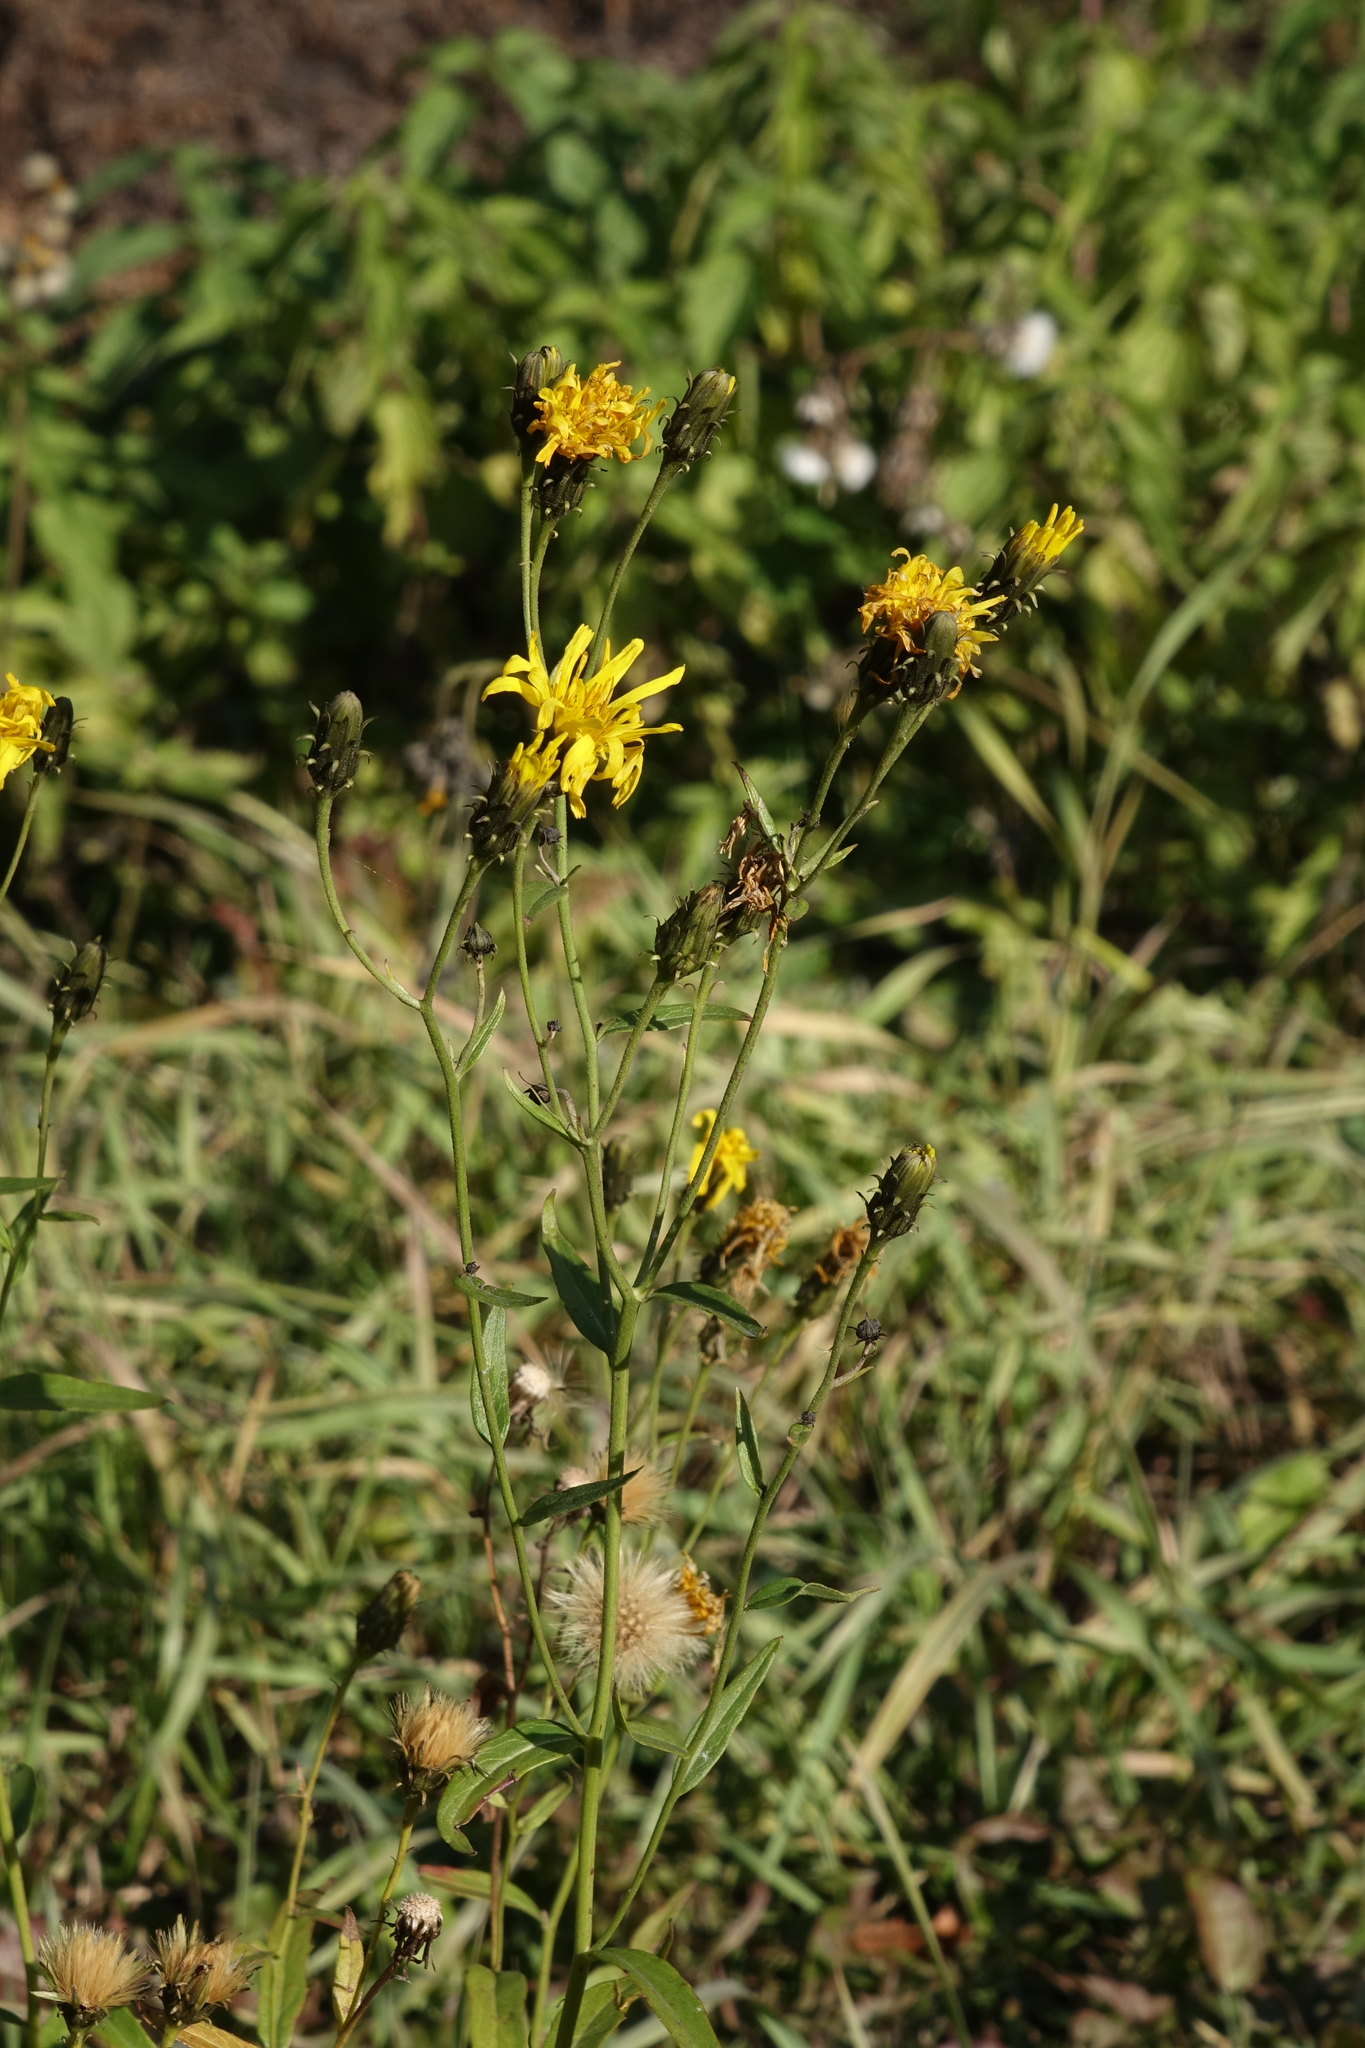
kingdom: Plantae
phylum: Tracheophyta
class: Magnoliopsida
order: Asterales
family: Asteraceae
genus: Hieracium
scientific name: Hieracium umbellatum
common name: Northern hawkweed
